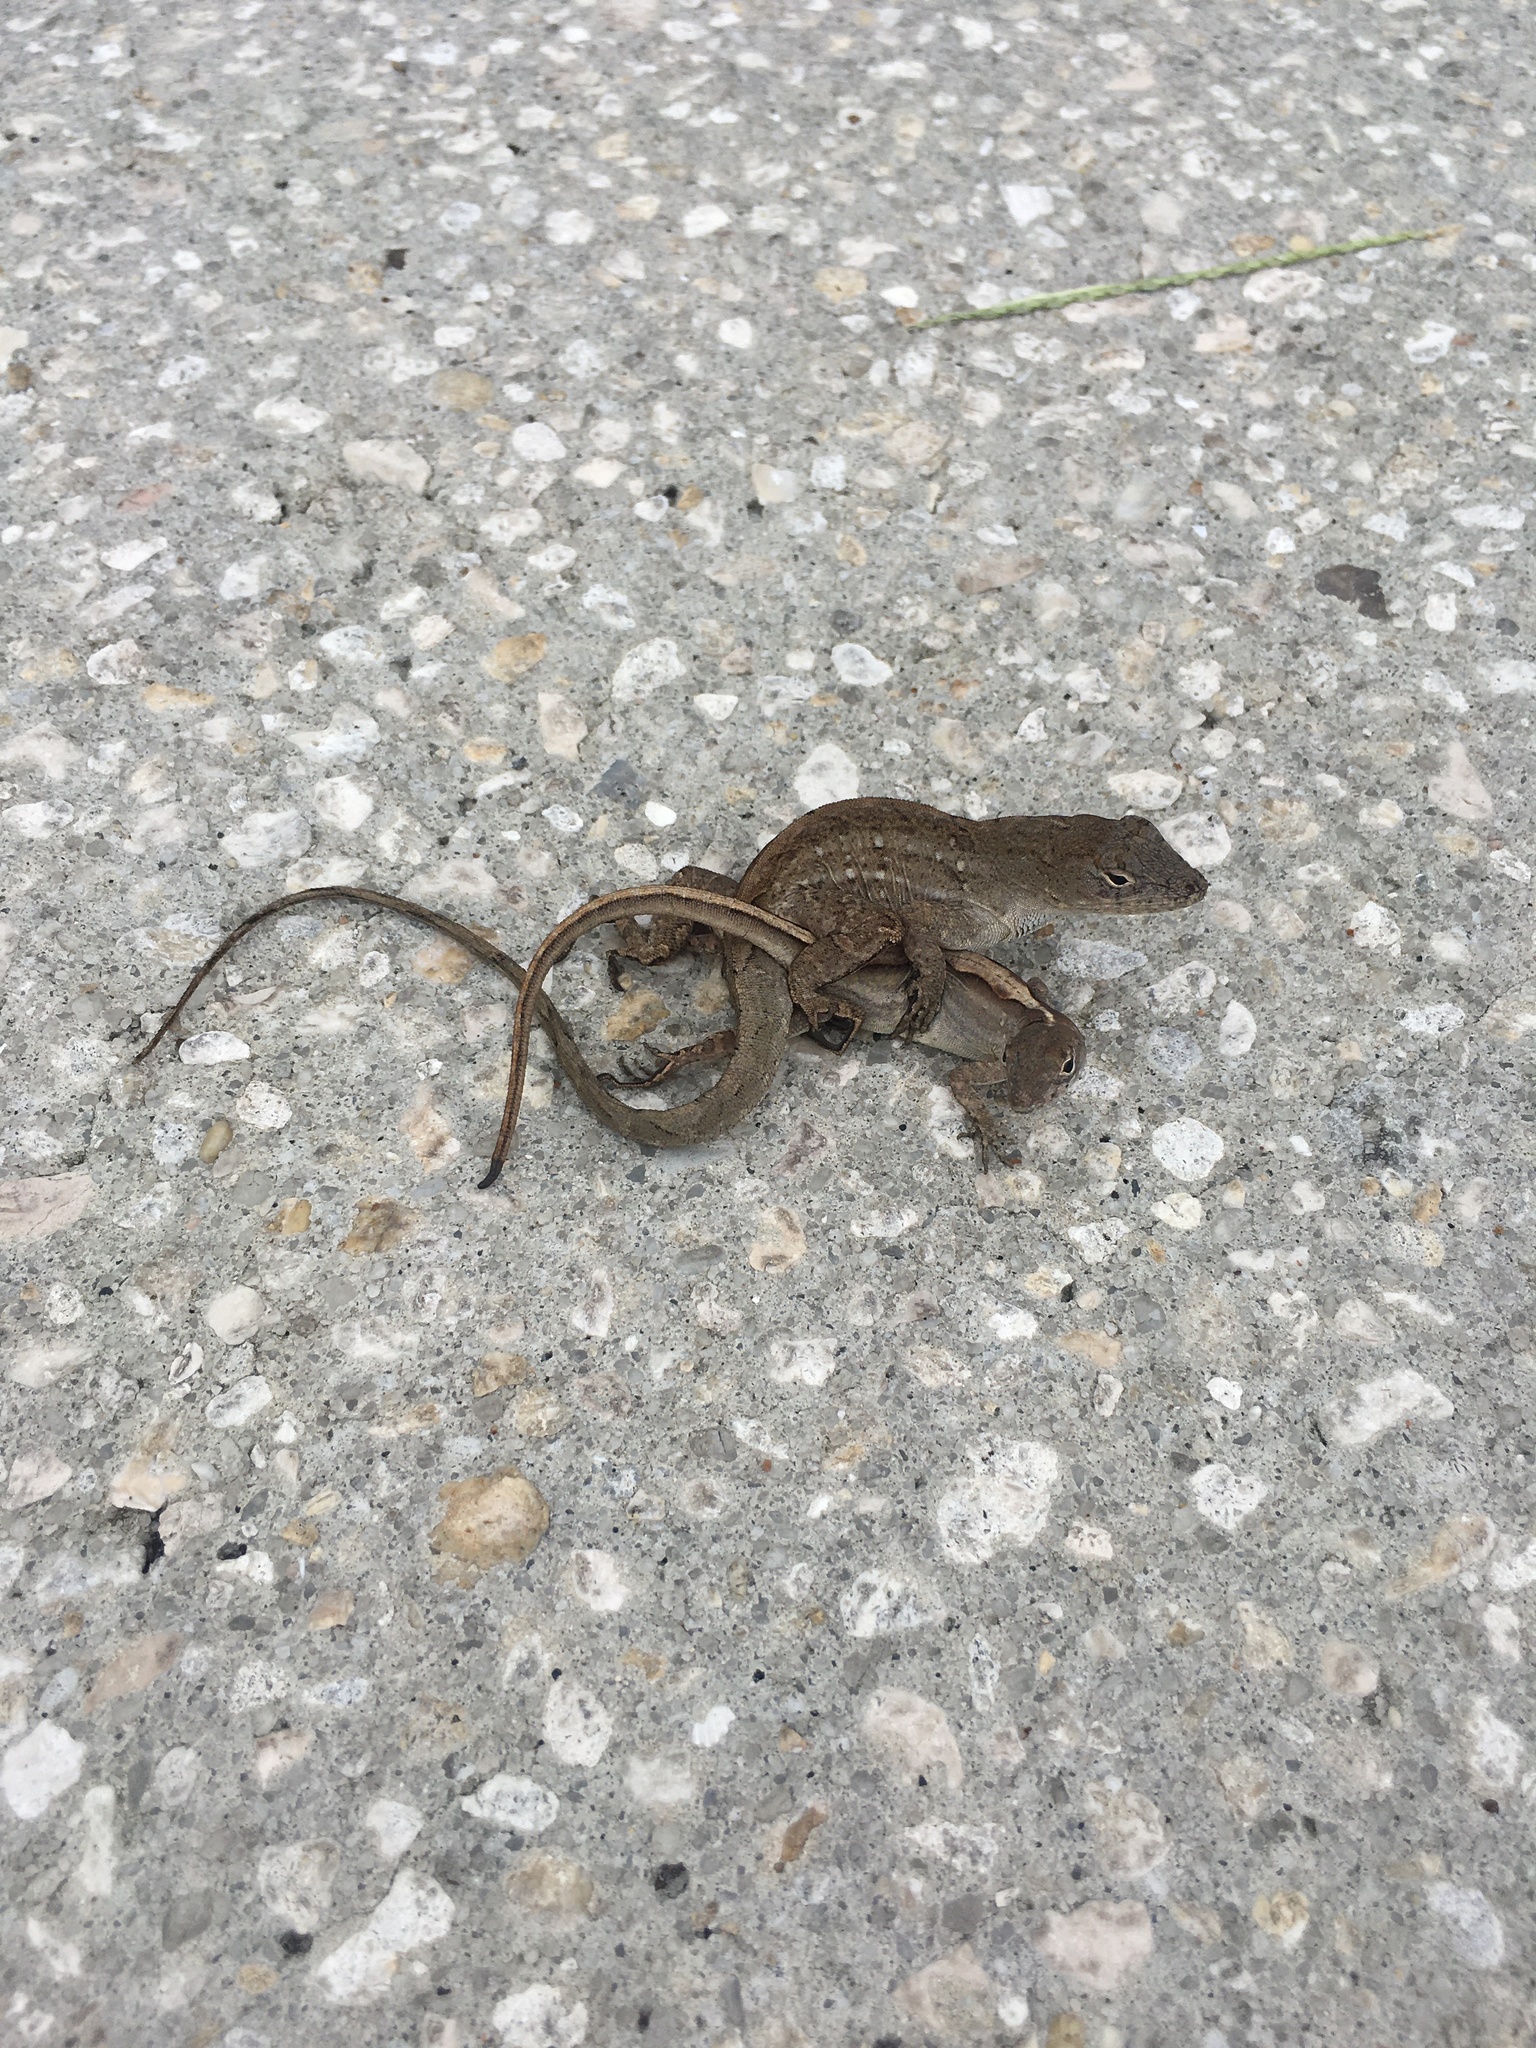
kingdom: Animalia
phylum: Chordata
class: Squamata
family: Dactyloidae
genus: Anolis
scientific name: Anolis sagrei
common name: Brown anole
